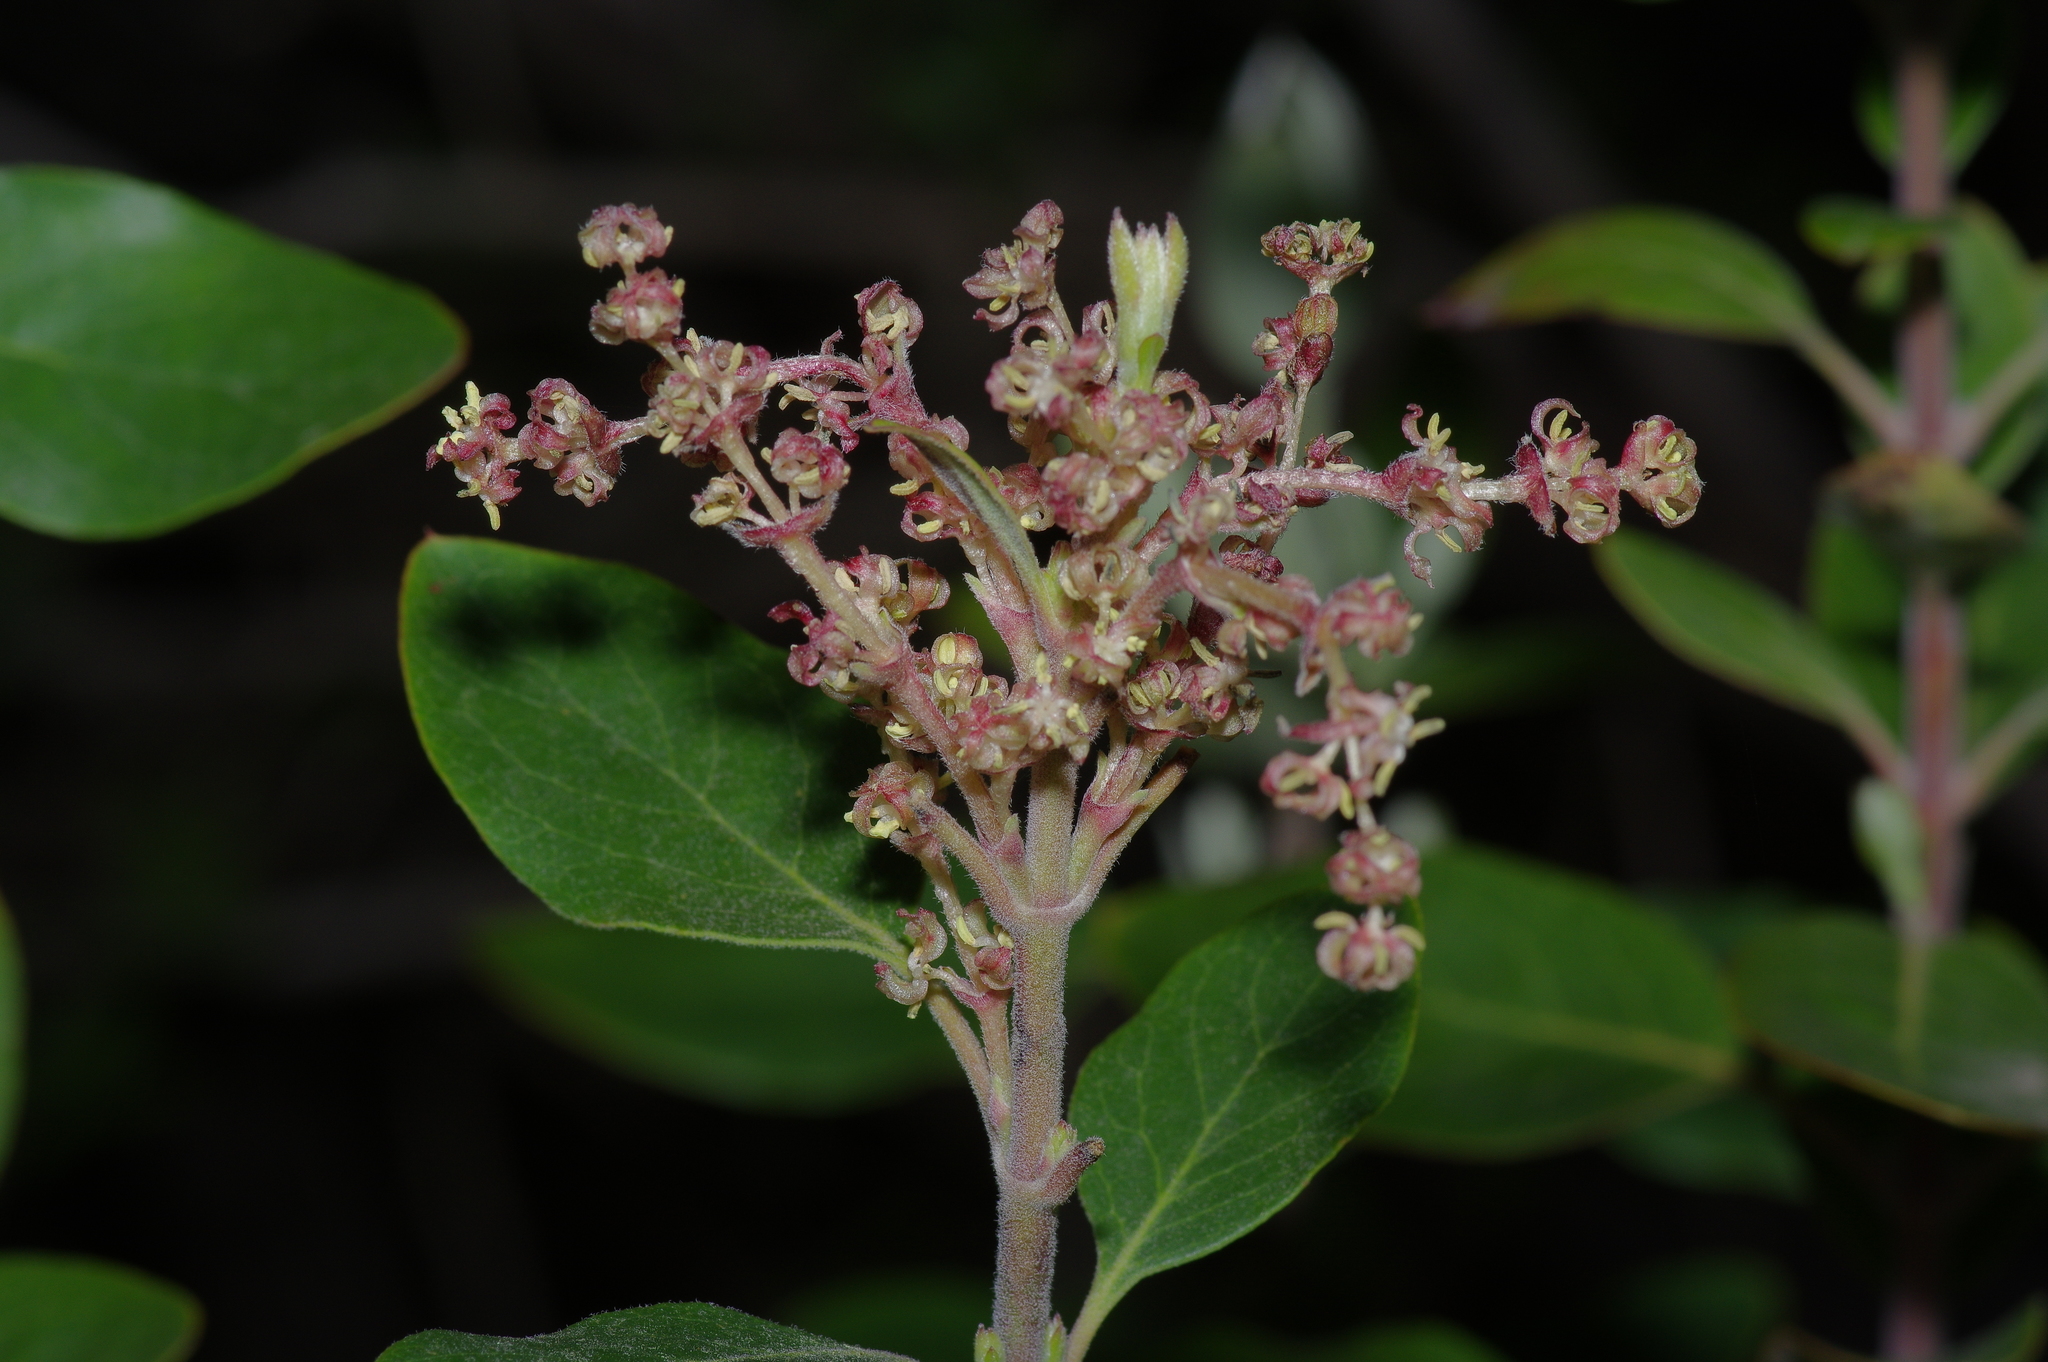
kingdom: Plantae
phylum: Tracheophyta
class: Magnoliopsida
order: Garryales
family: Garryaceae
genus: Garrya
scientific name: Garrya lindheimeri
